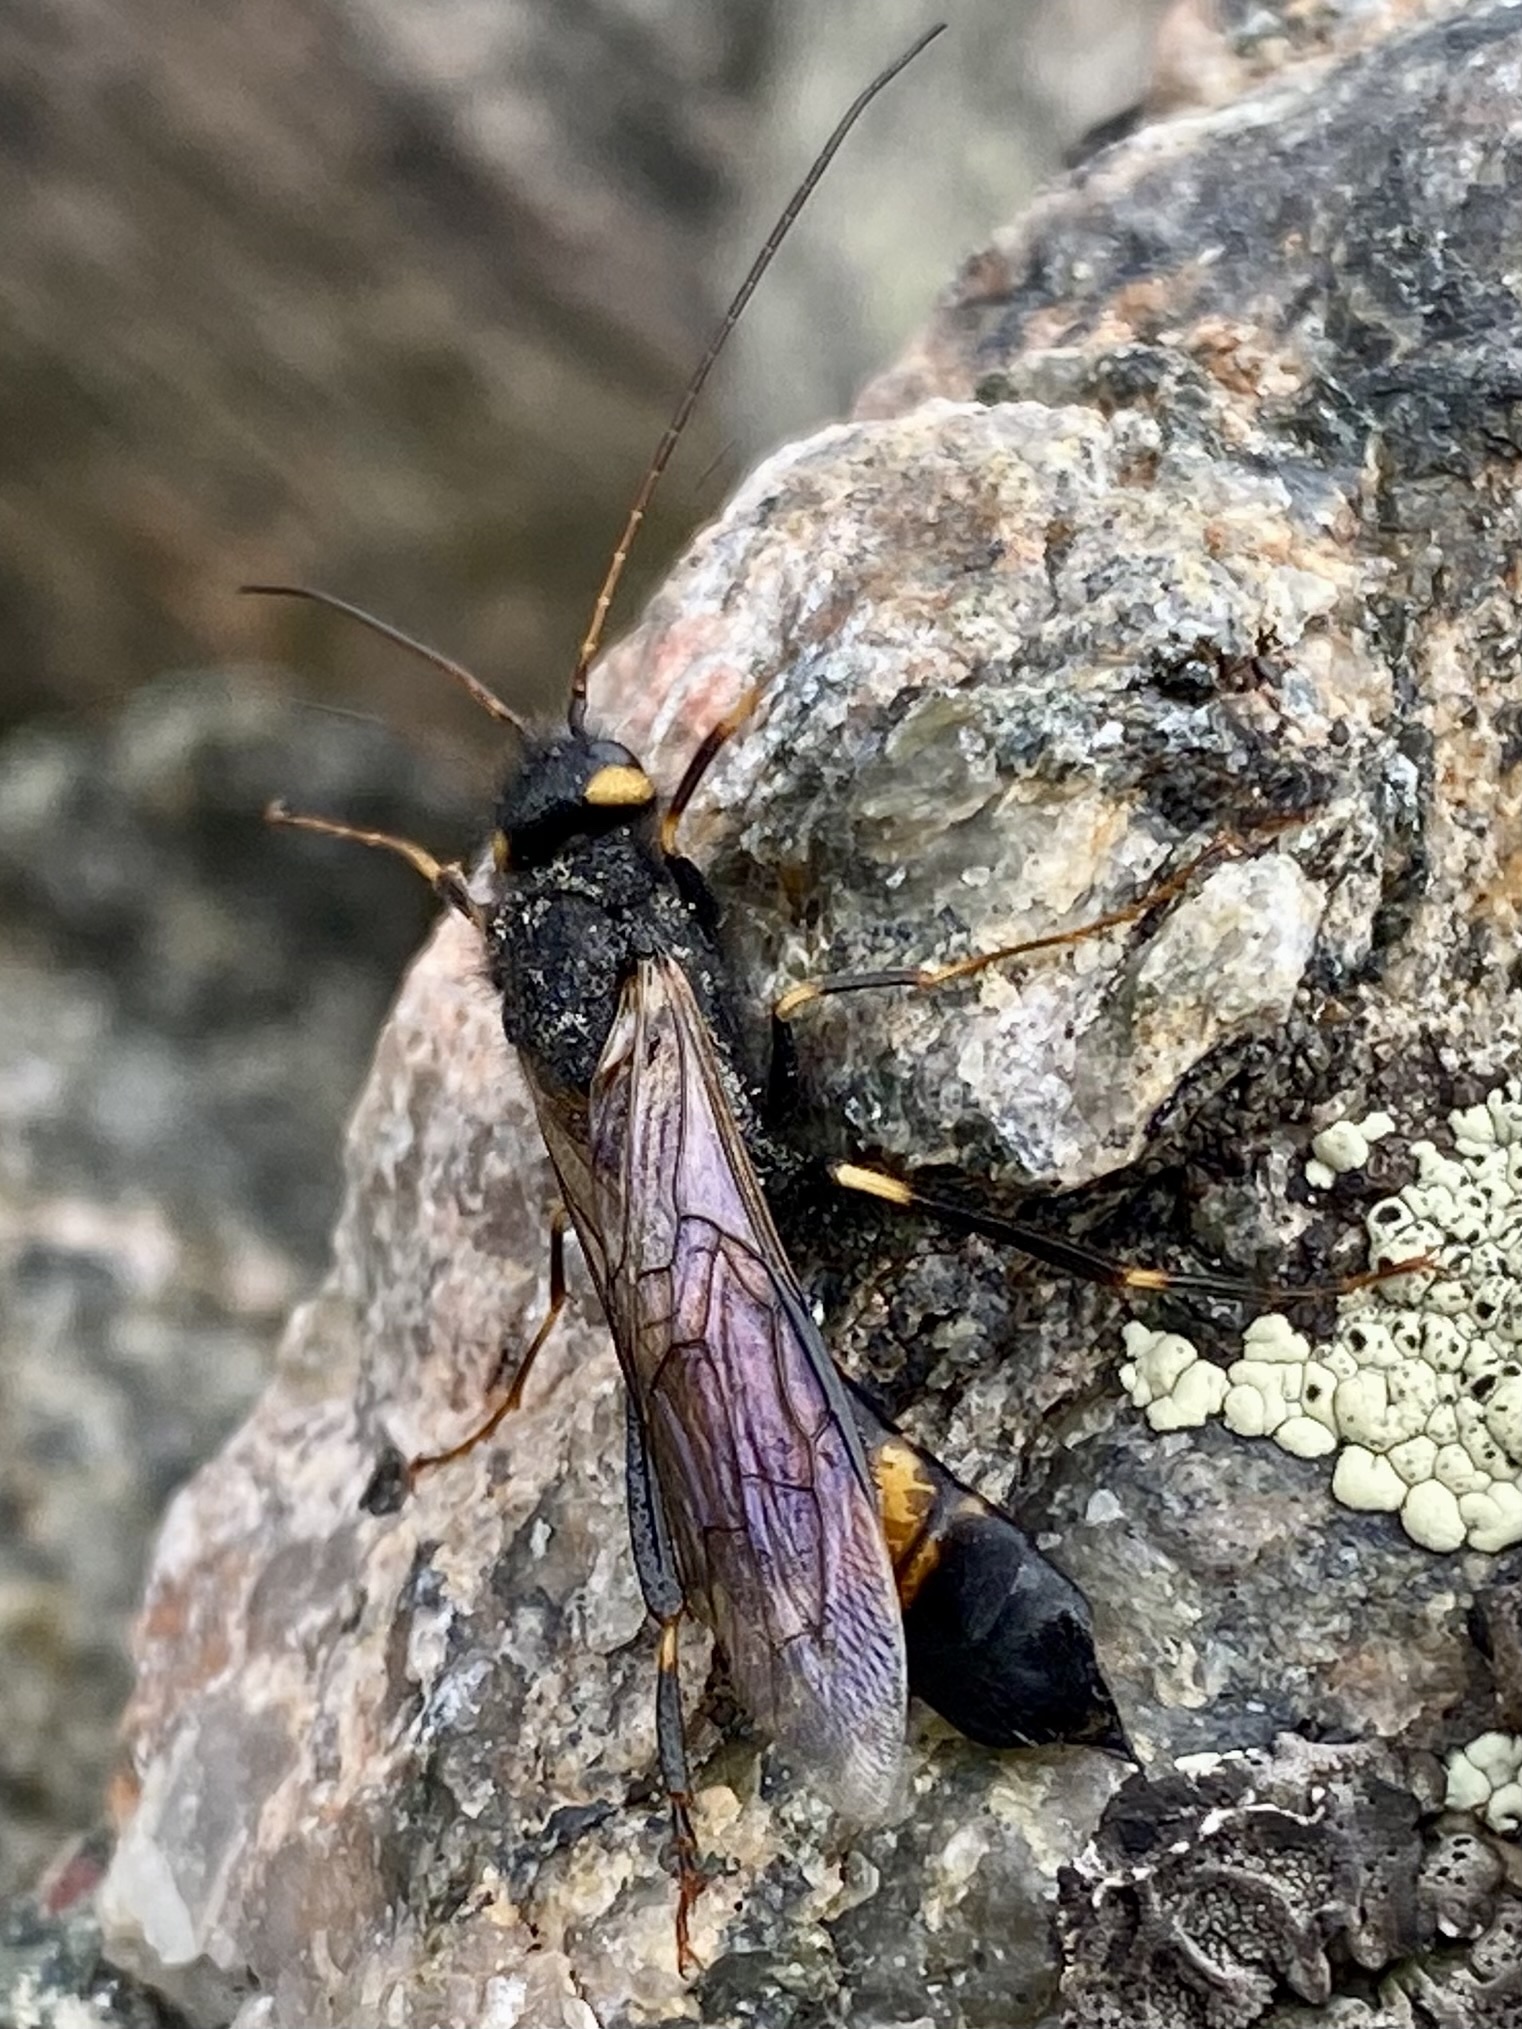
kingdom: Animalia
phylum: Arthropoda
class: Insecta
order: Hymenoptera
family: Siricidae
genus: Urocerus
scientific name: Urocerus flavicornis
